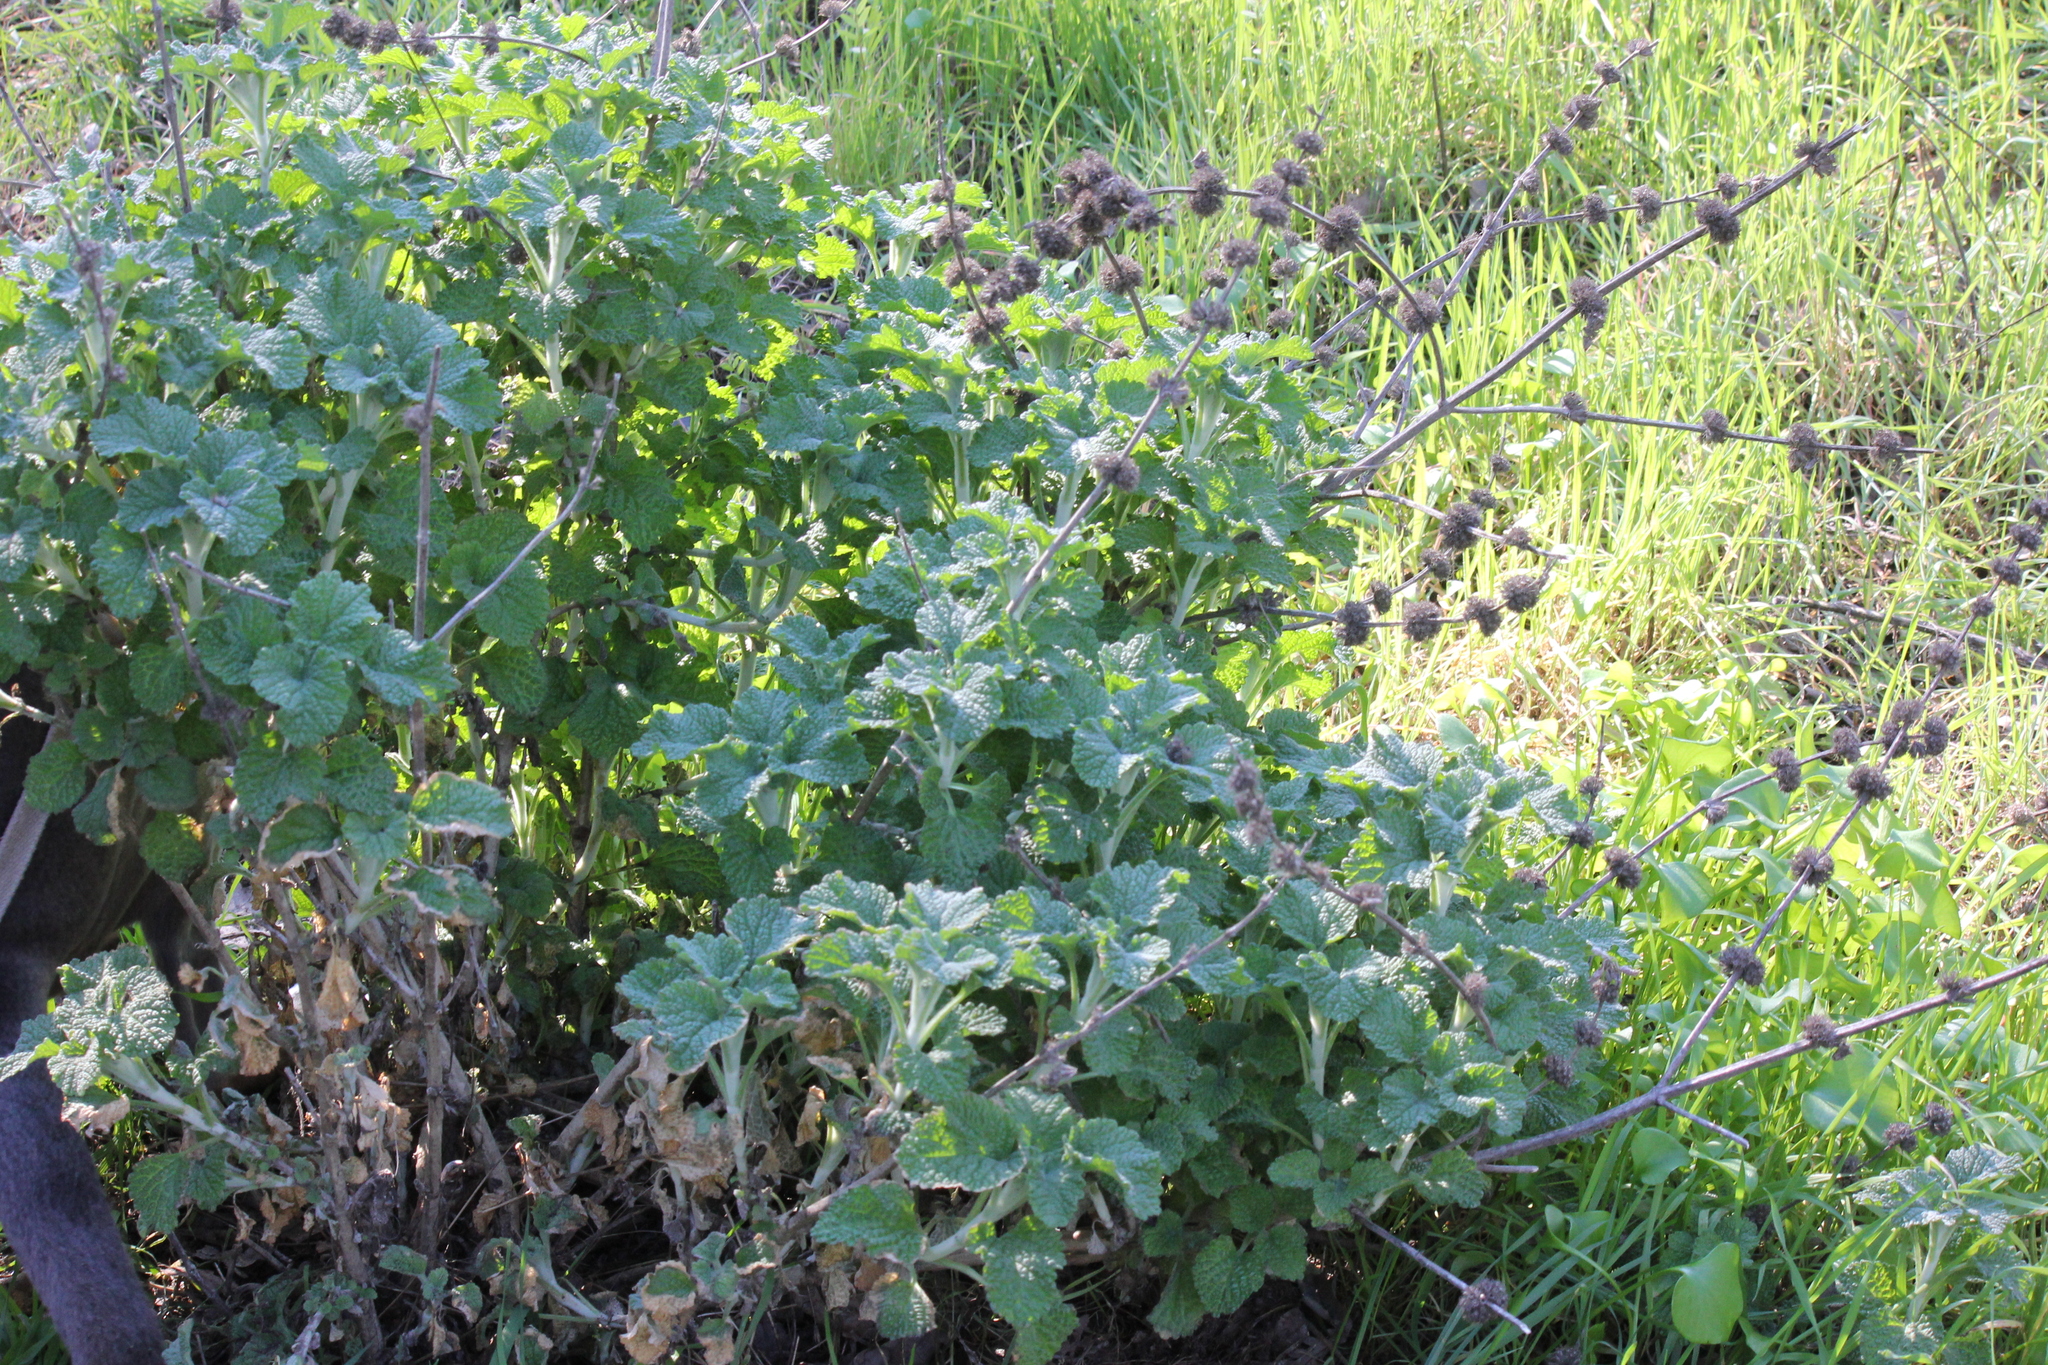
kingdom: Plantae
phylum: Tracheophyta
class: Magnoliopsida
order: Lamiales
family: Lamiaceae
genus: Marrubium
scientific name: Marrubium vulgare
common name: Horehound
